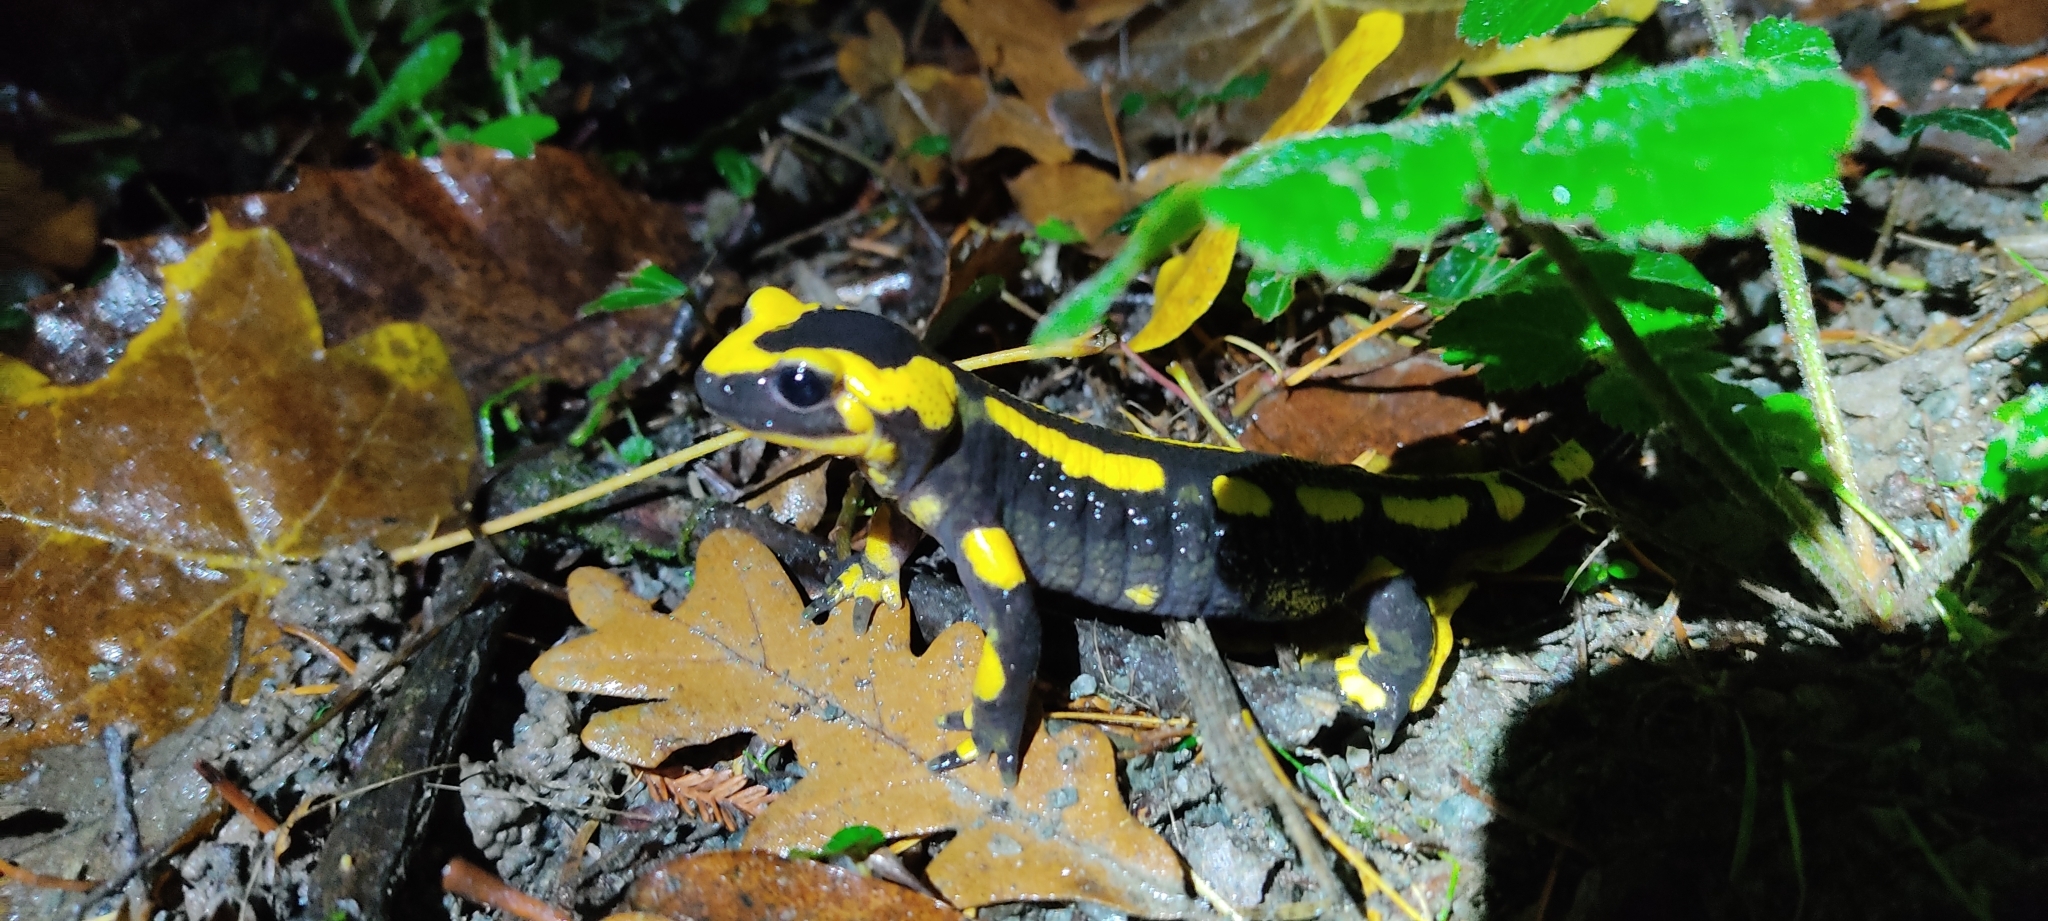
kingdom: Animalia
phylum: Chordata
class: Amphibia
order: Caudata
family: Salamandridae
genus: Salamandra
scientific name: Salamandra salamandra
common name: Fire salamander
